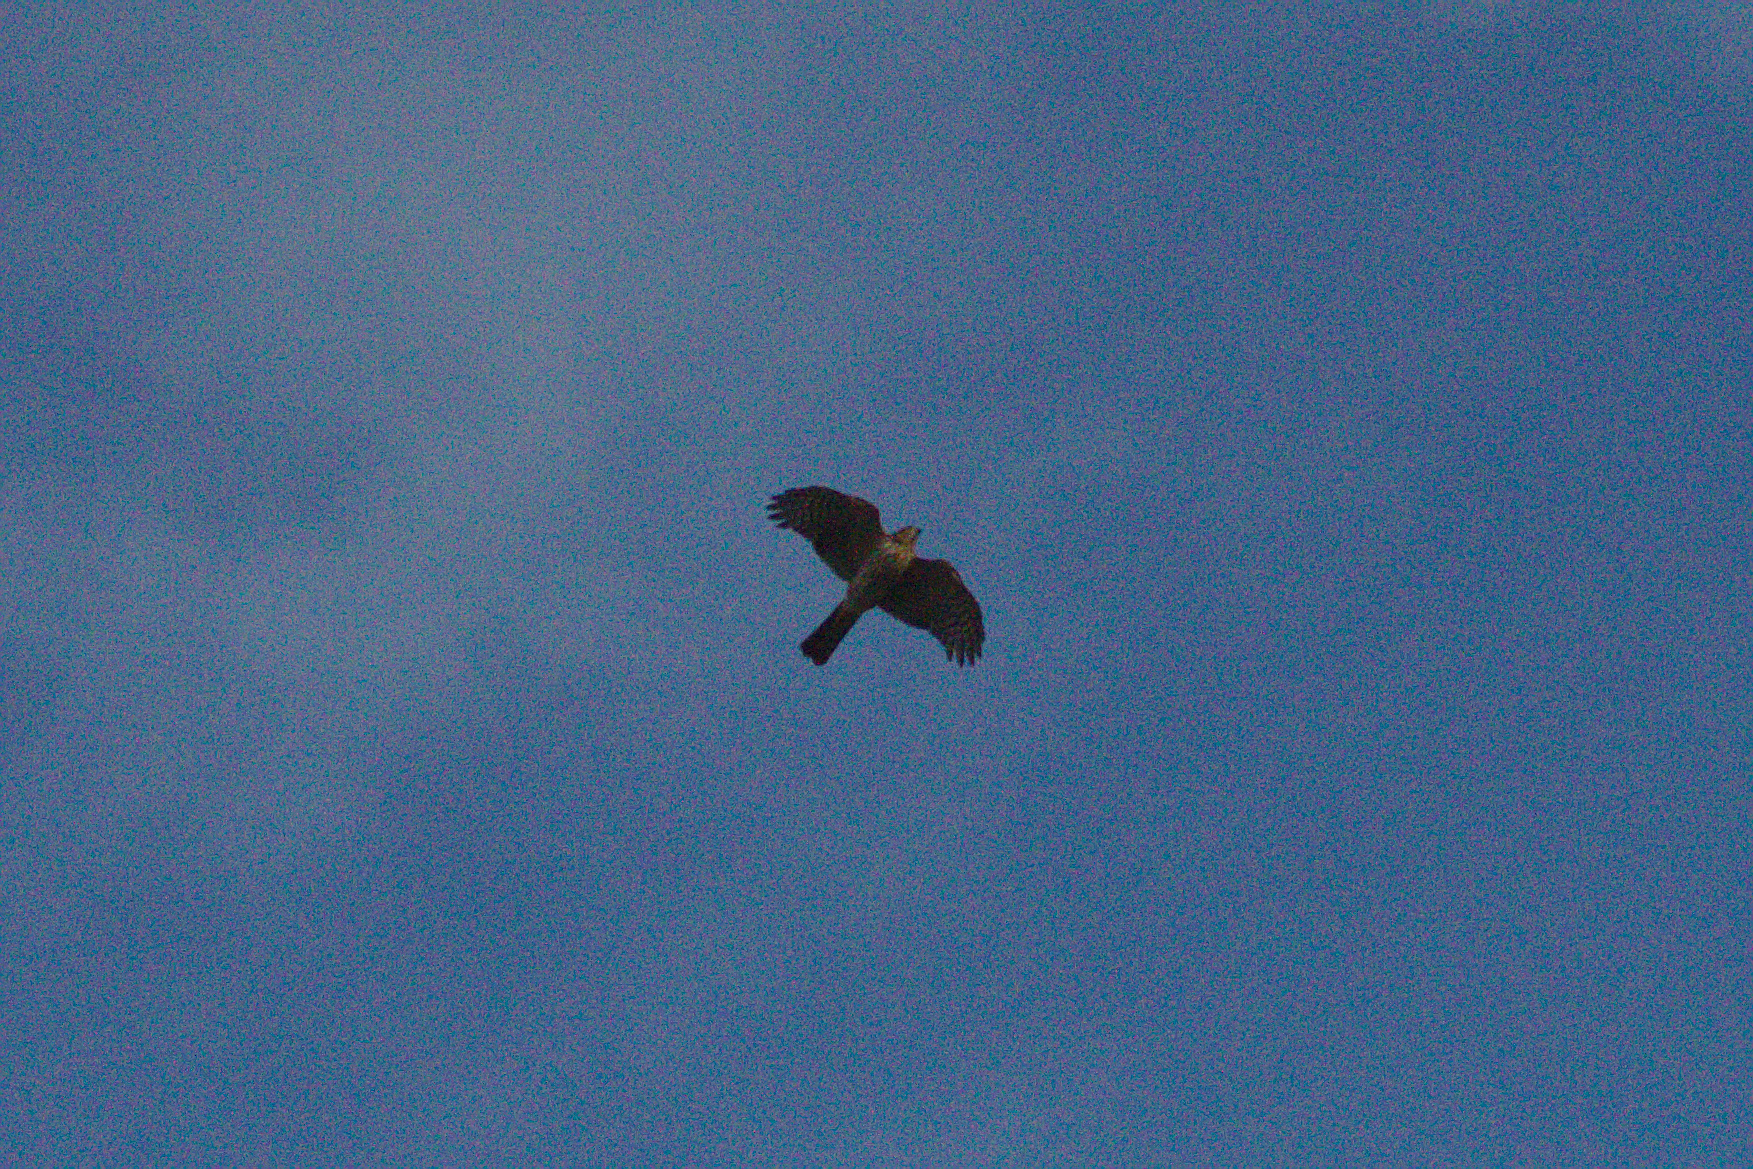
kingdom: Animalia
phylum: Chordata
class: Aves
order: Accipitriformes
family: Accipitridae
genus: Accipiter
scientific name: Accipiter striatus
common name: Sharp-shinned hawk
